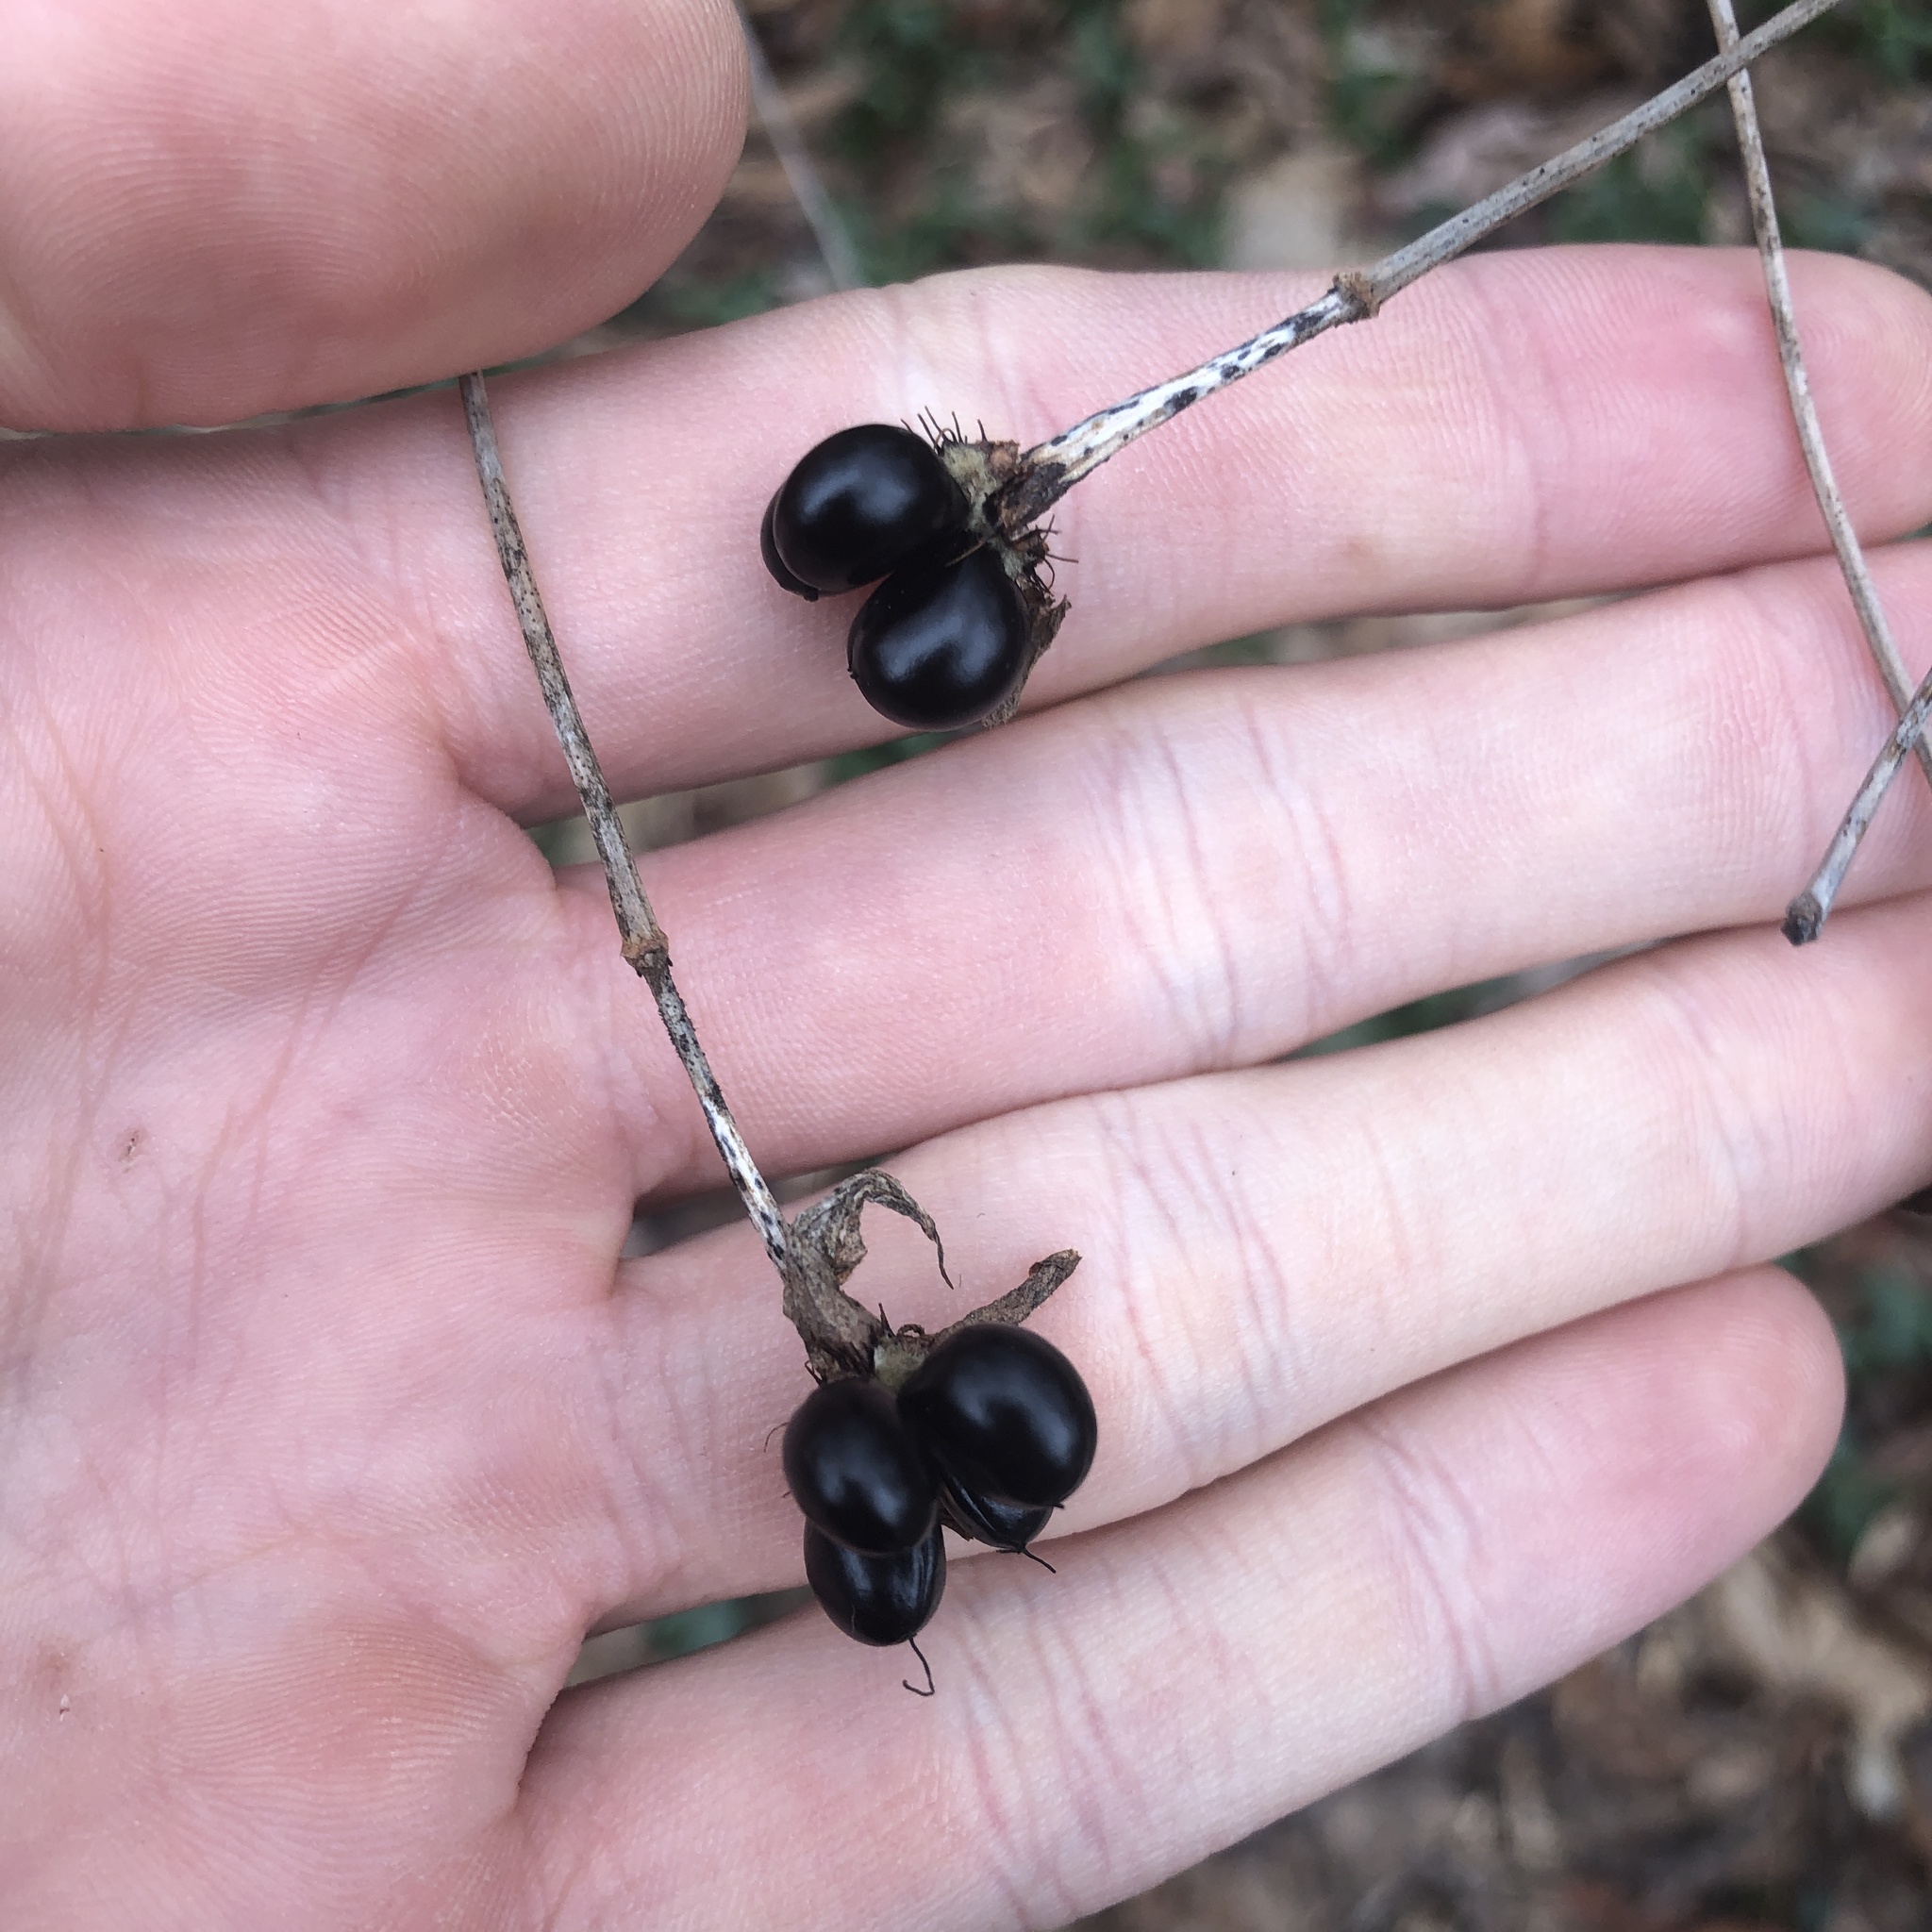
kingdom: Plantae
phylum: Tracheophyta
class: Magnoliopsida
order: Rosales
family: Rosaceae
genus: Rhodotypos
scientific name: Rhodotypos scandens
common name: Jetbead
